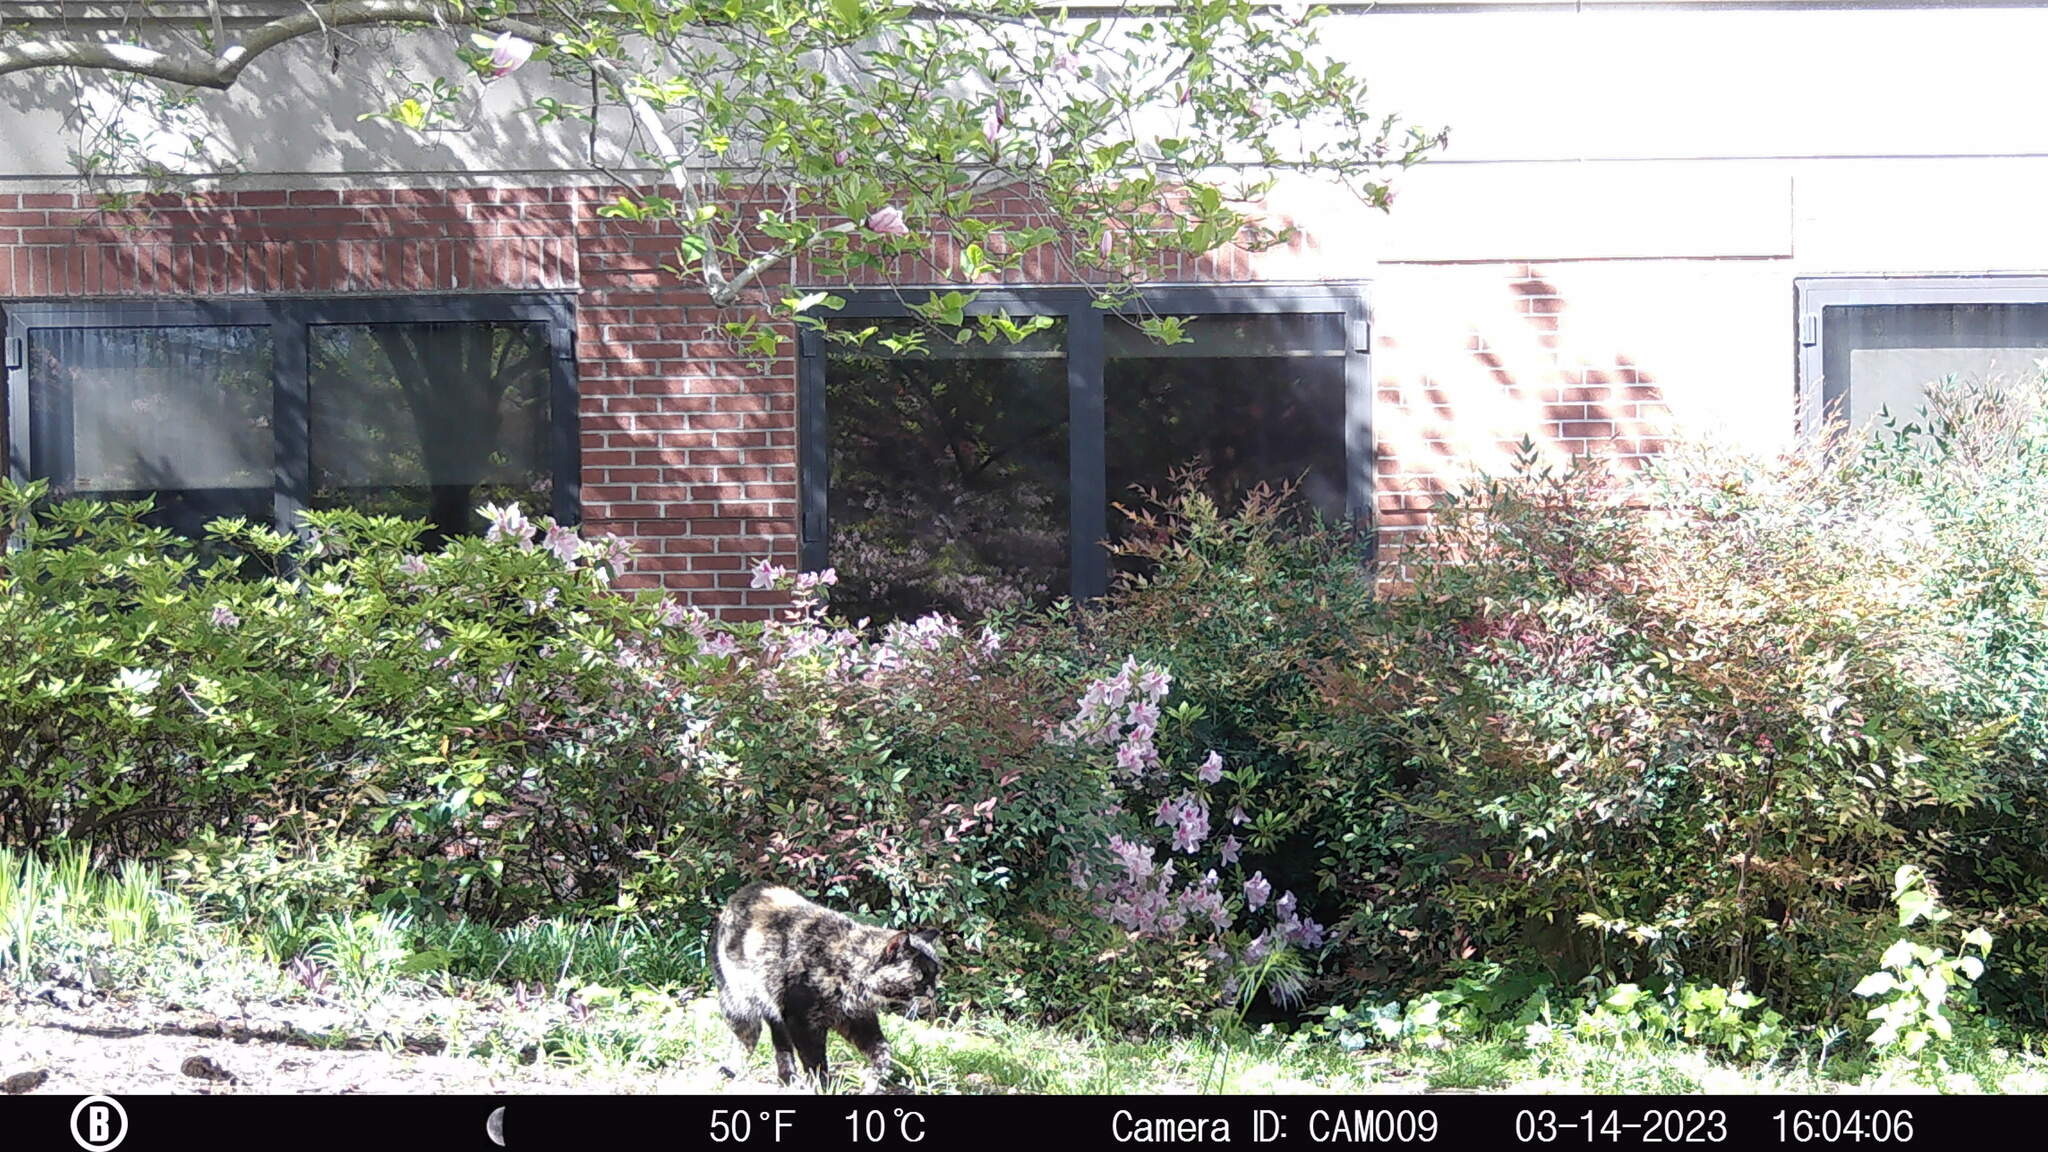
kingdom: Animalia
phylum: Chordata
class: Mammalia
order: Carnivora
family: Felidae
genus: Felis
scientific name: Felis catus
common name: Domestic cat
